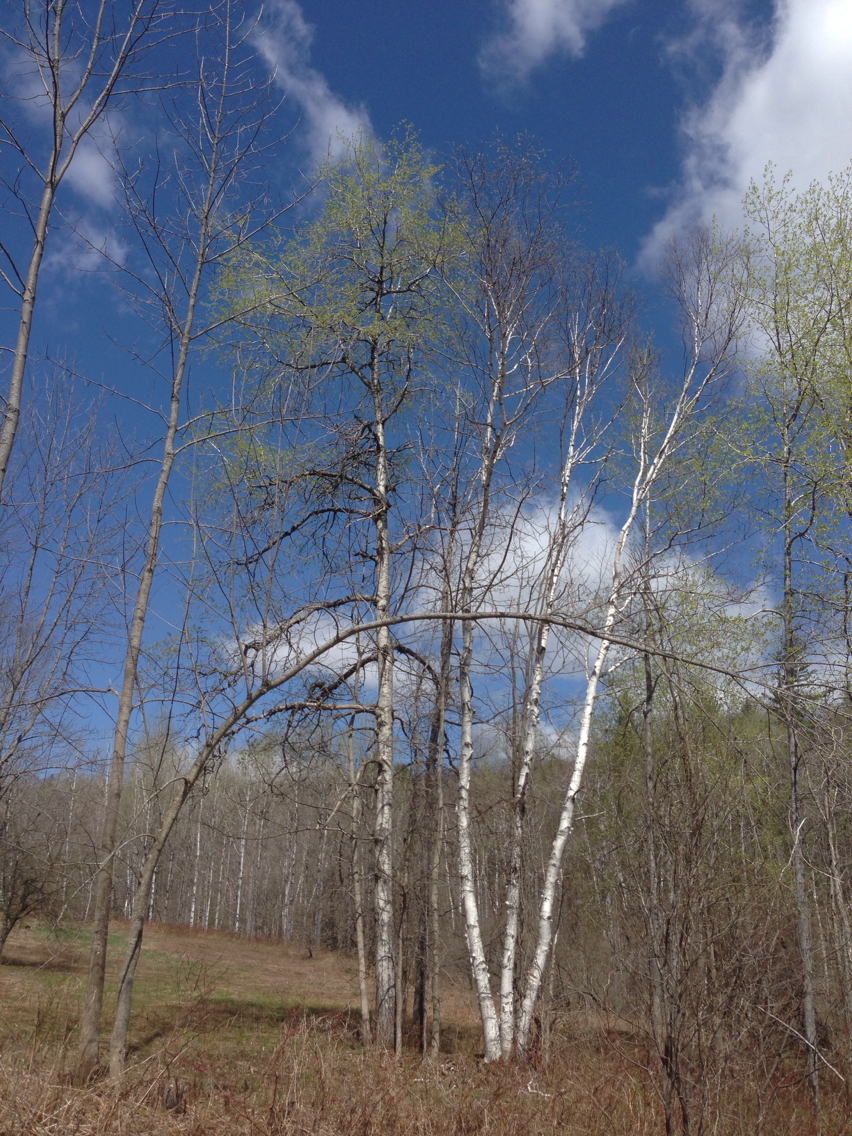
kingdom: Plantae
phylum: Tracheophyta
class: Magnoliopsida
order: Malpighiales
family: Salicaceae
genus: Populus
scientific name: Populus tremuloides
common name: Quaking aspen
